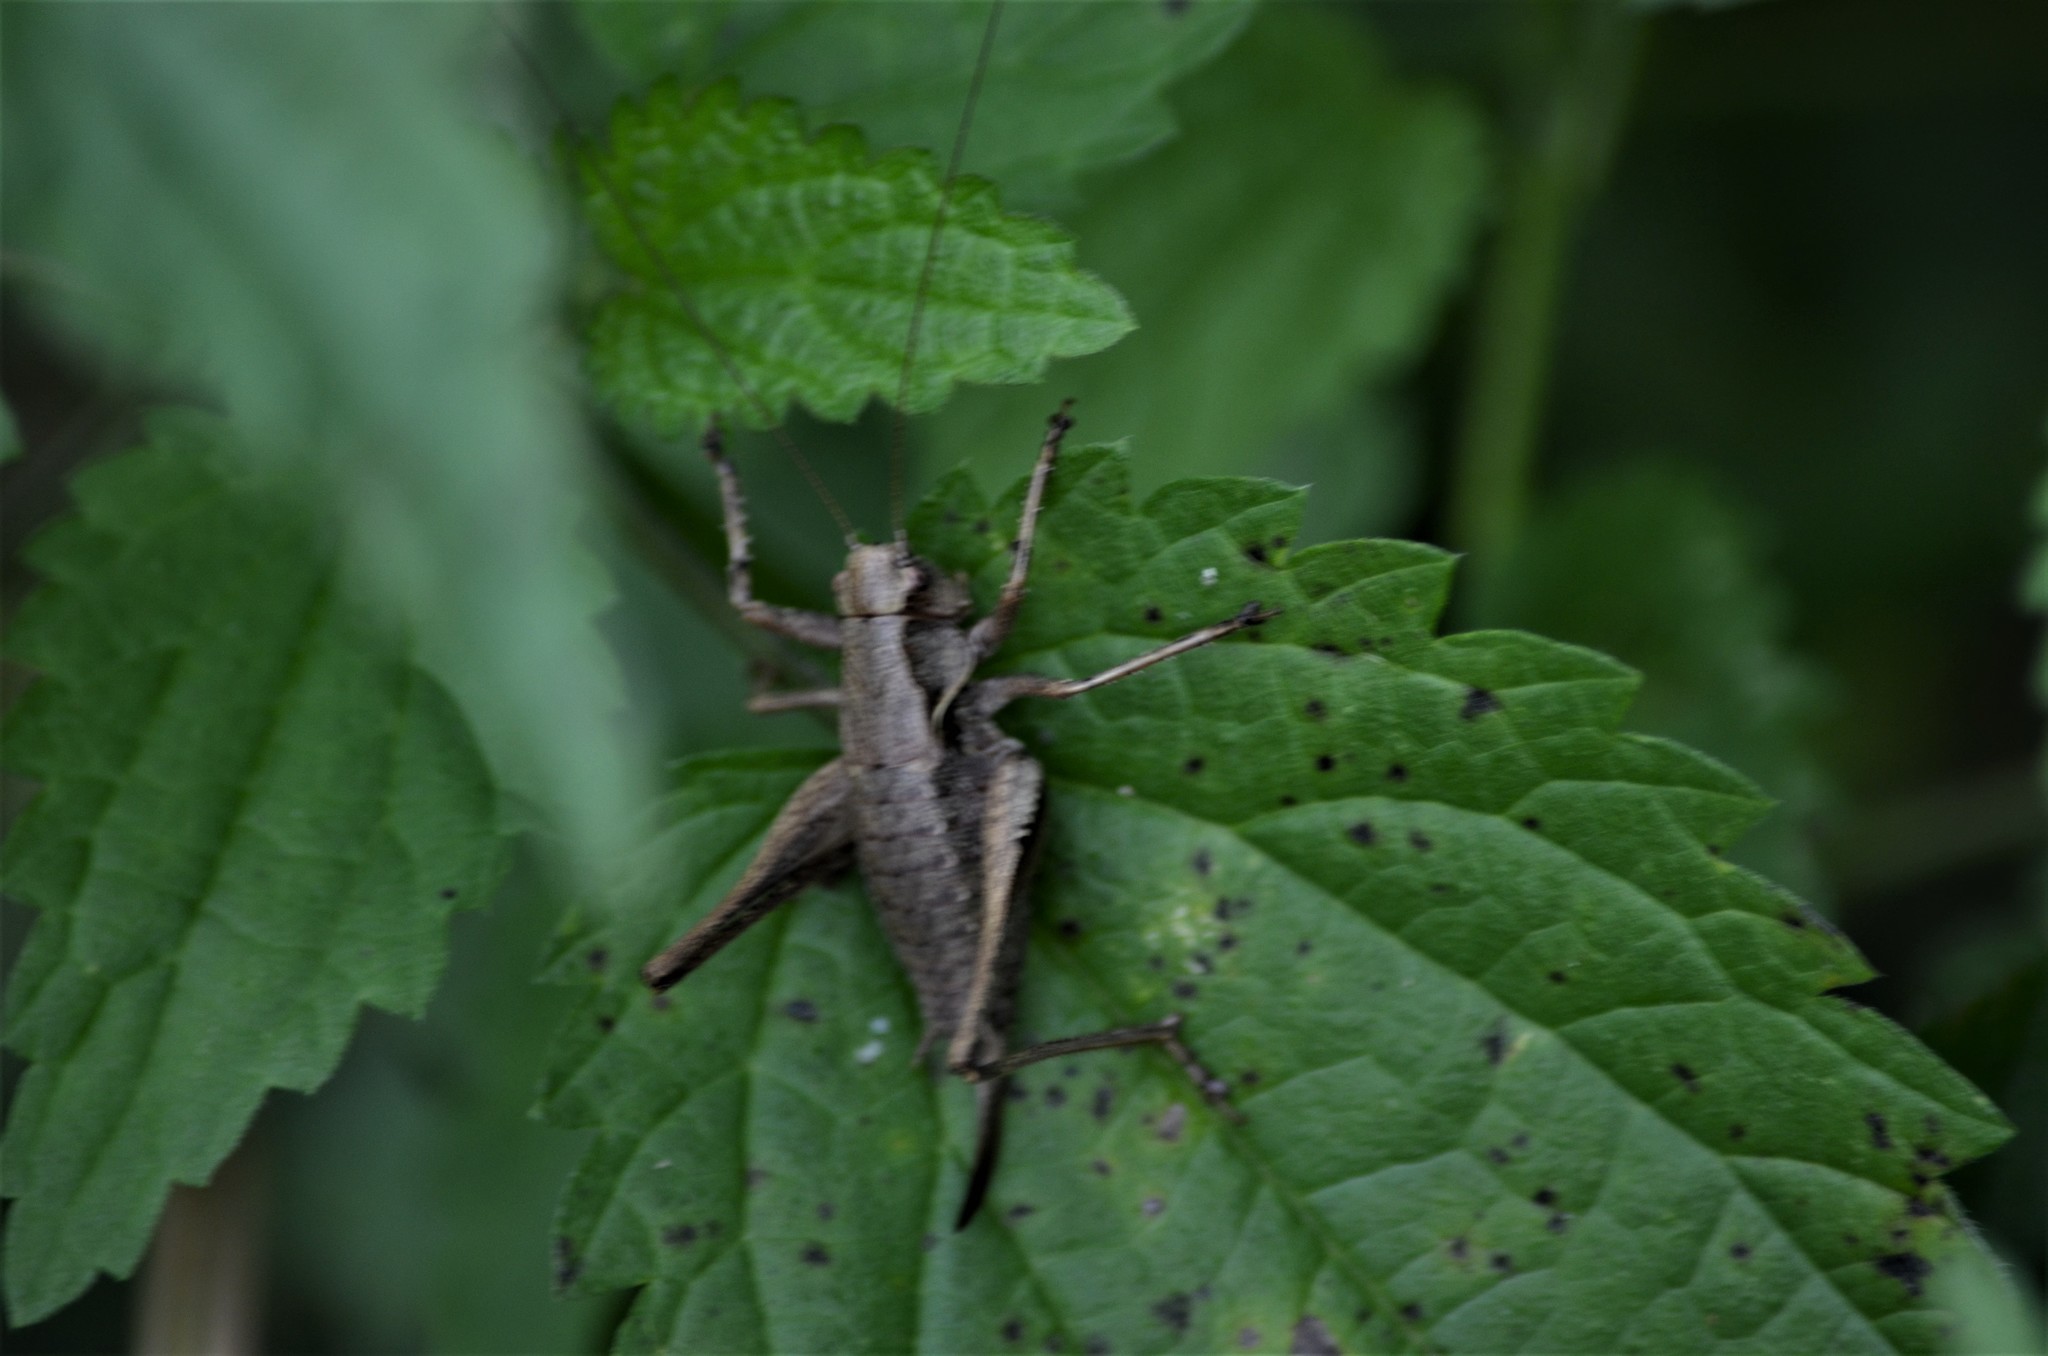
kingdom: Animalia
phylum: Arthropoda
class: Insecta
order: Orthoptera
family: Tettigoniidae
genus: Pholidoptera
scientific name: Pholidoptera griseoaptera
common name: Dark bush-cricket
